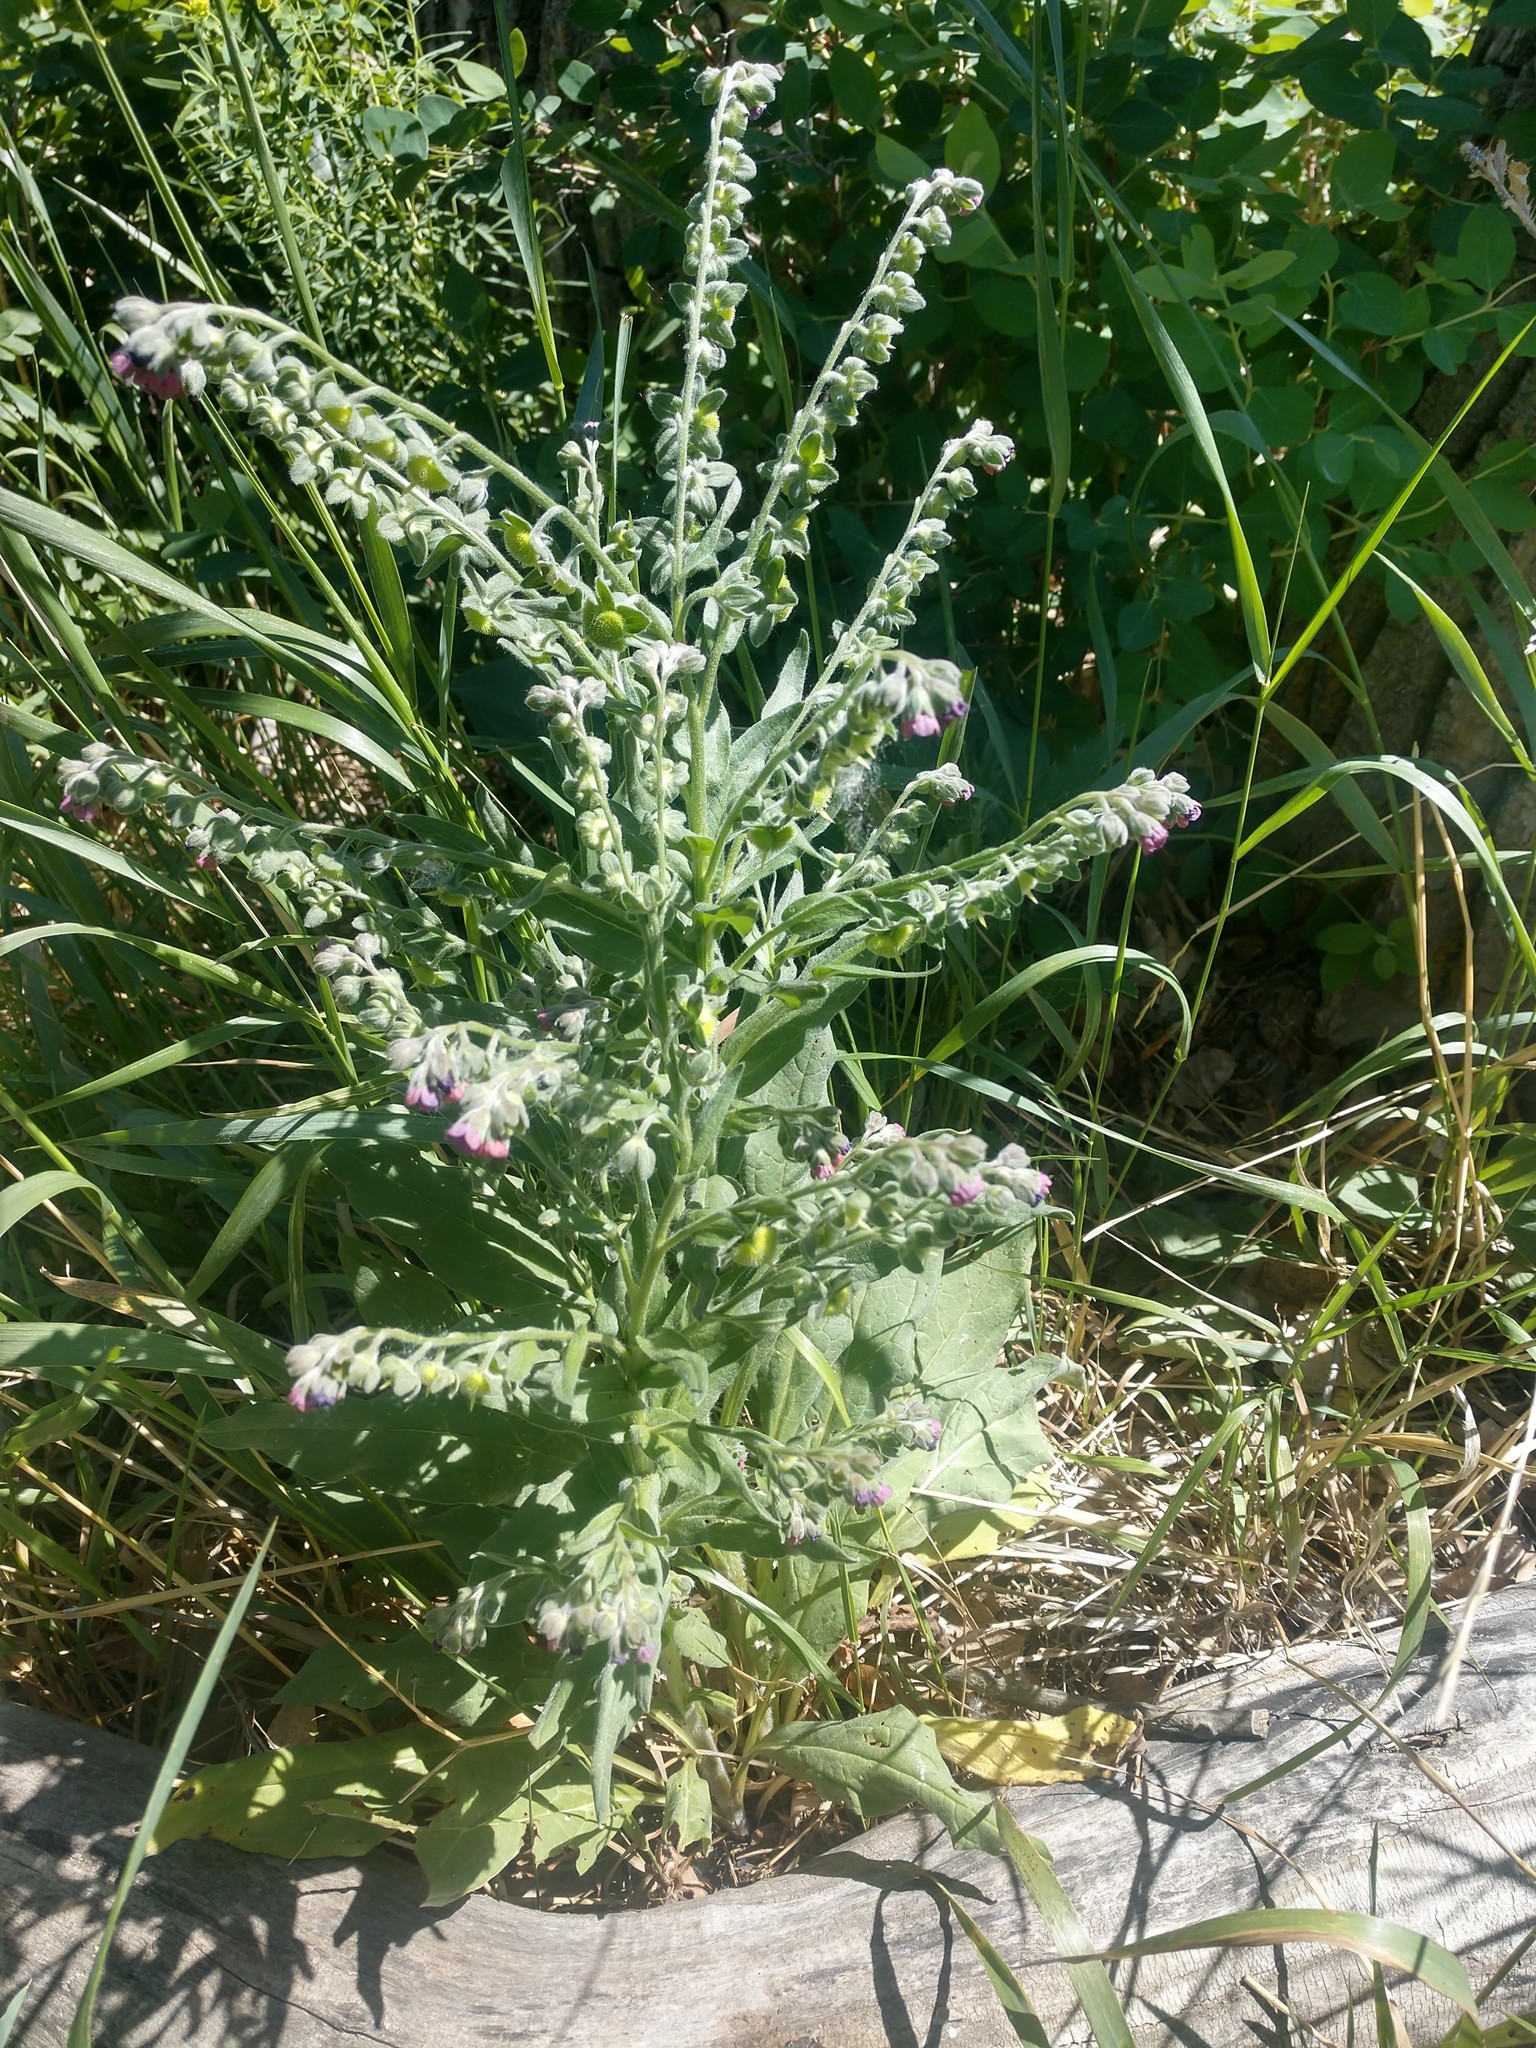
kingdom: Plantae
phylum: Tracheophyta
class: Magnoliopsida
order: Boraginales
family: Boraginaceae
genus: Cynoglossum
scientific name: Cynoglossum officinale
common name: Hound's-tongue
